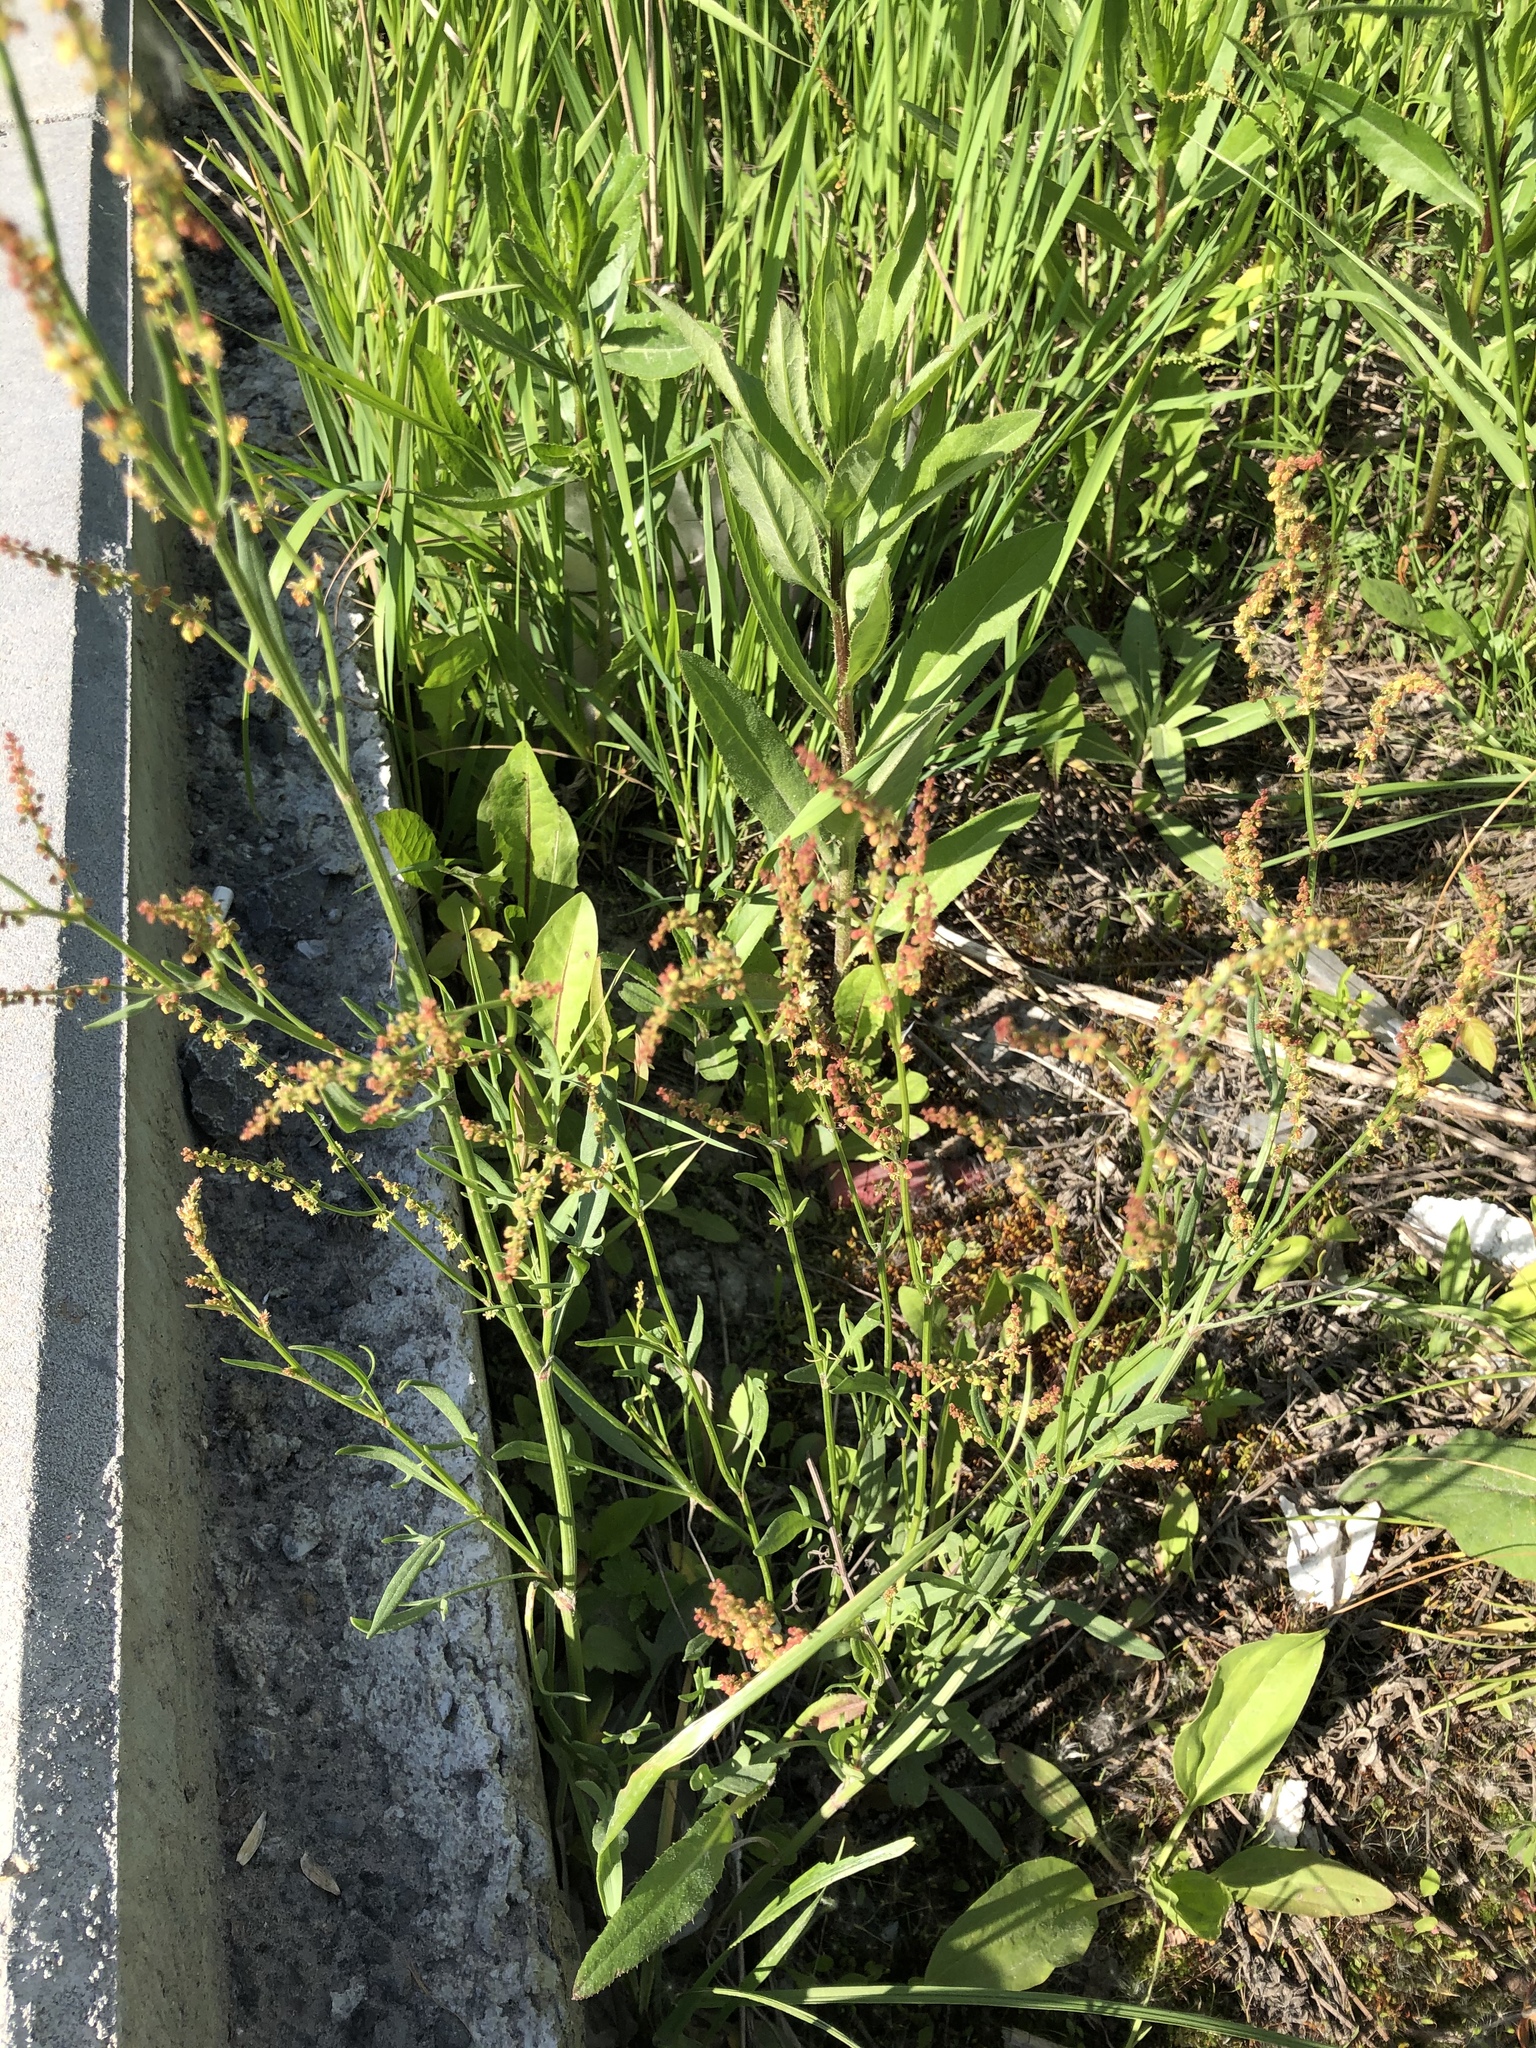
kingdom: Plantae
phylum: Tracheophyta
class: Magnoliopsida
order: Caryophyllales
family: Polygonaceae
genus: Rumex
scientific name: Rumex acetosella
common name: Common sheep sorrel
